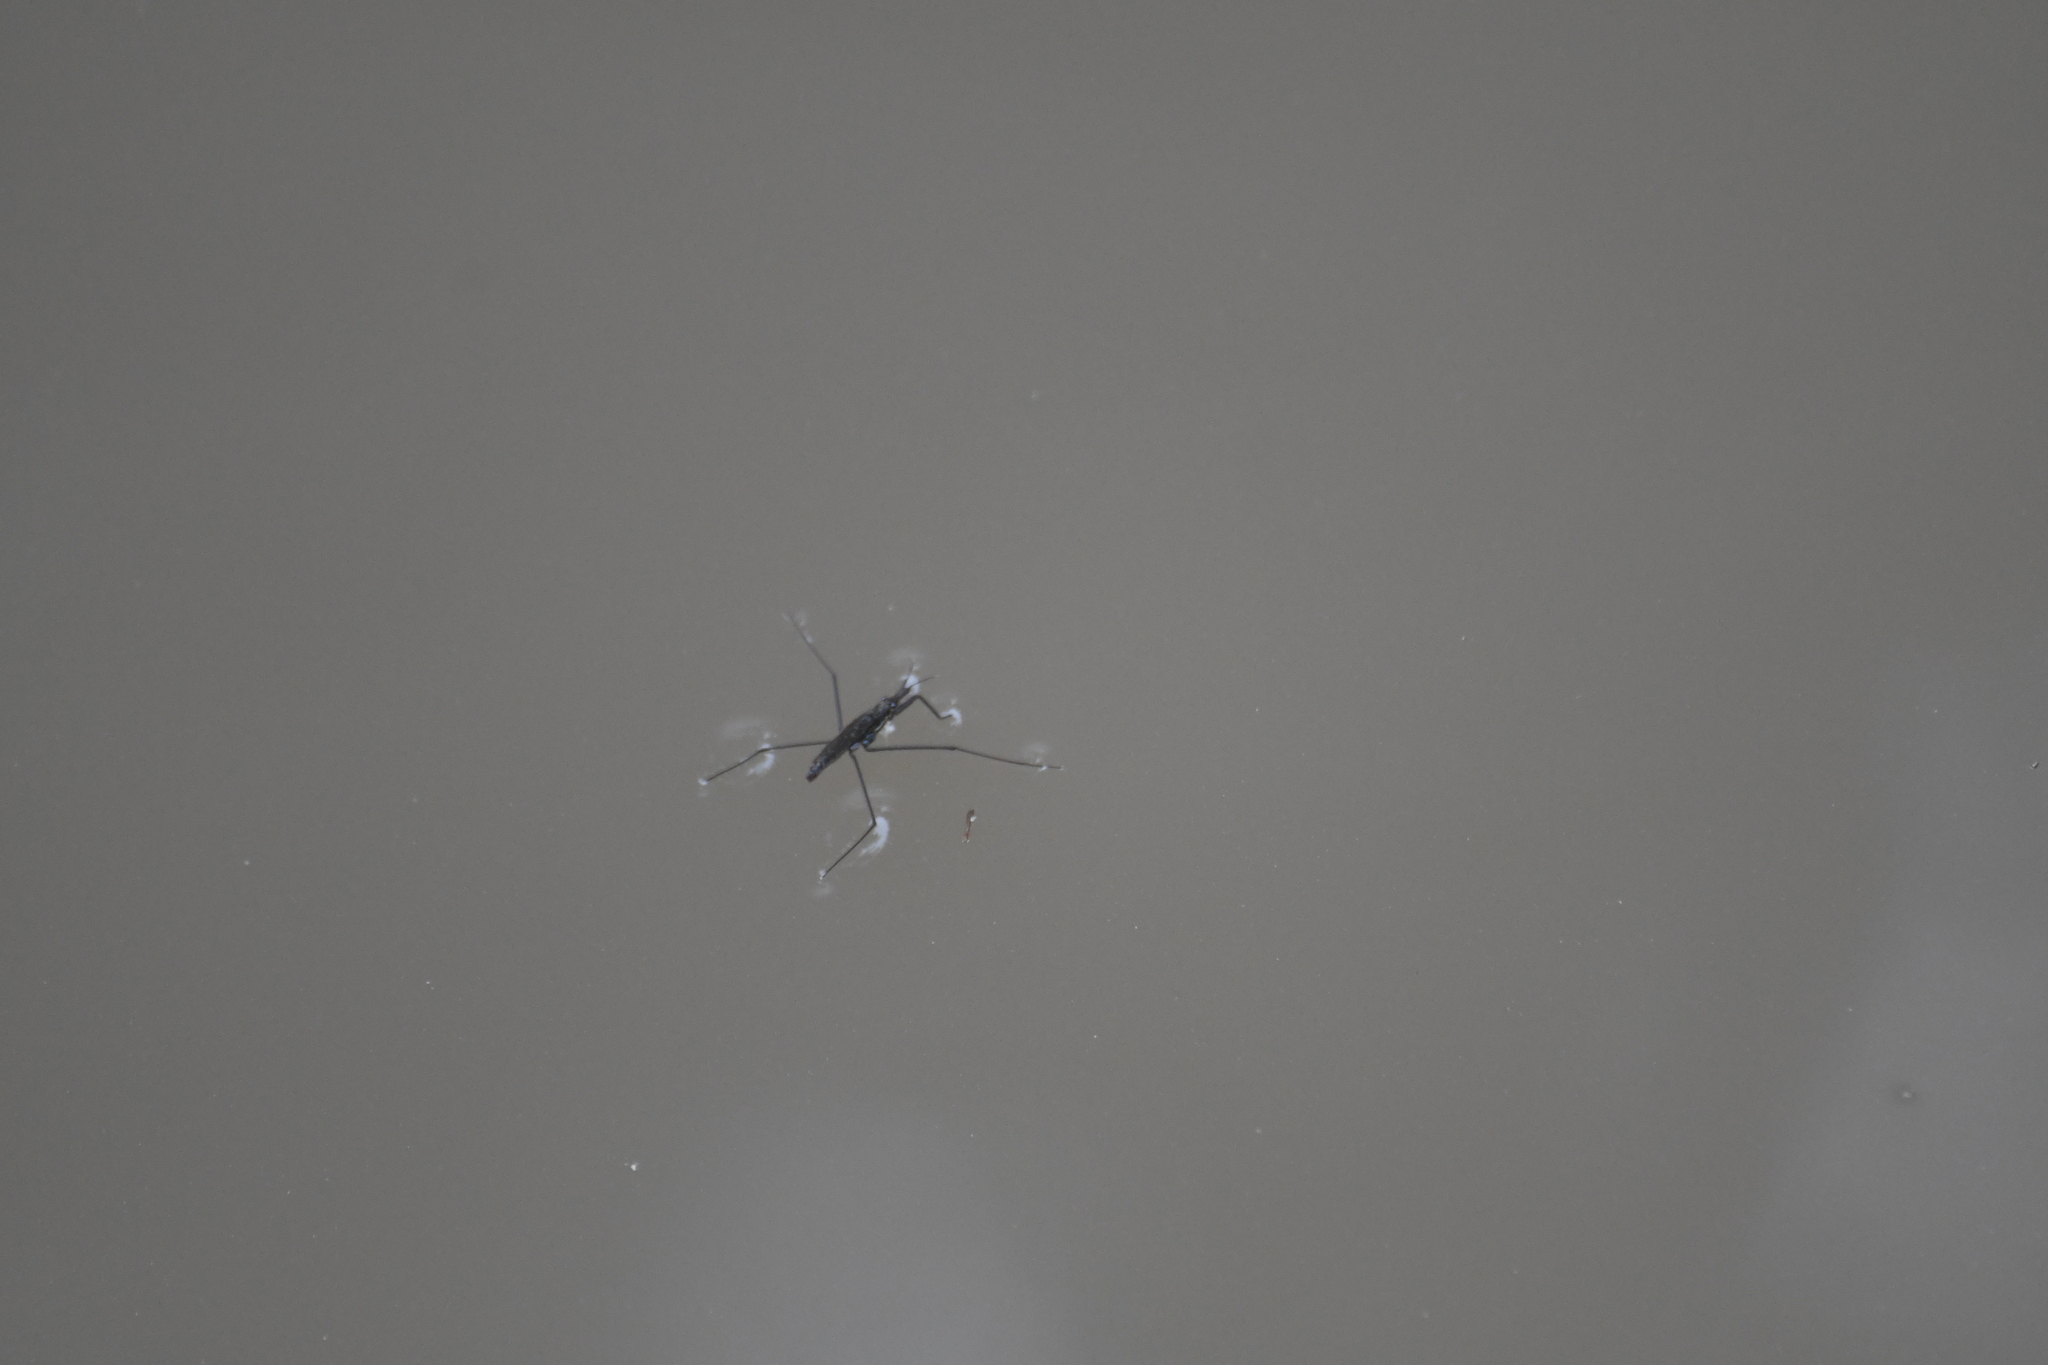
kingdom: Animalia
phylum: Arthropoda
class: Insecta
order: Hemiptera
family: Gerridae
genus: Aquarius
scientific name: Aquarius remigis
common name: Common water strider
